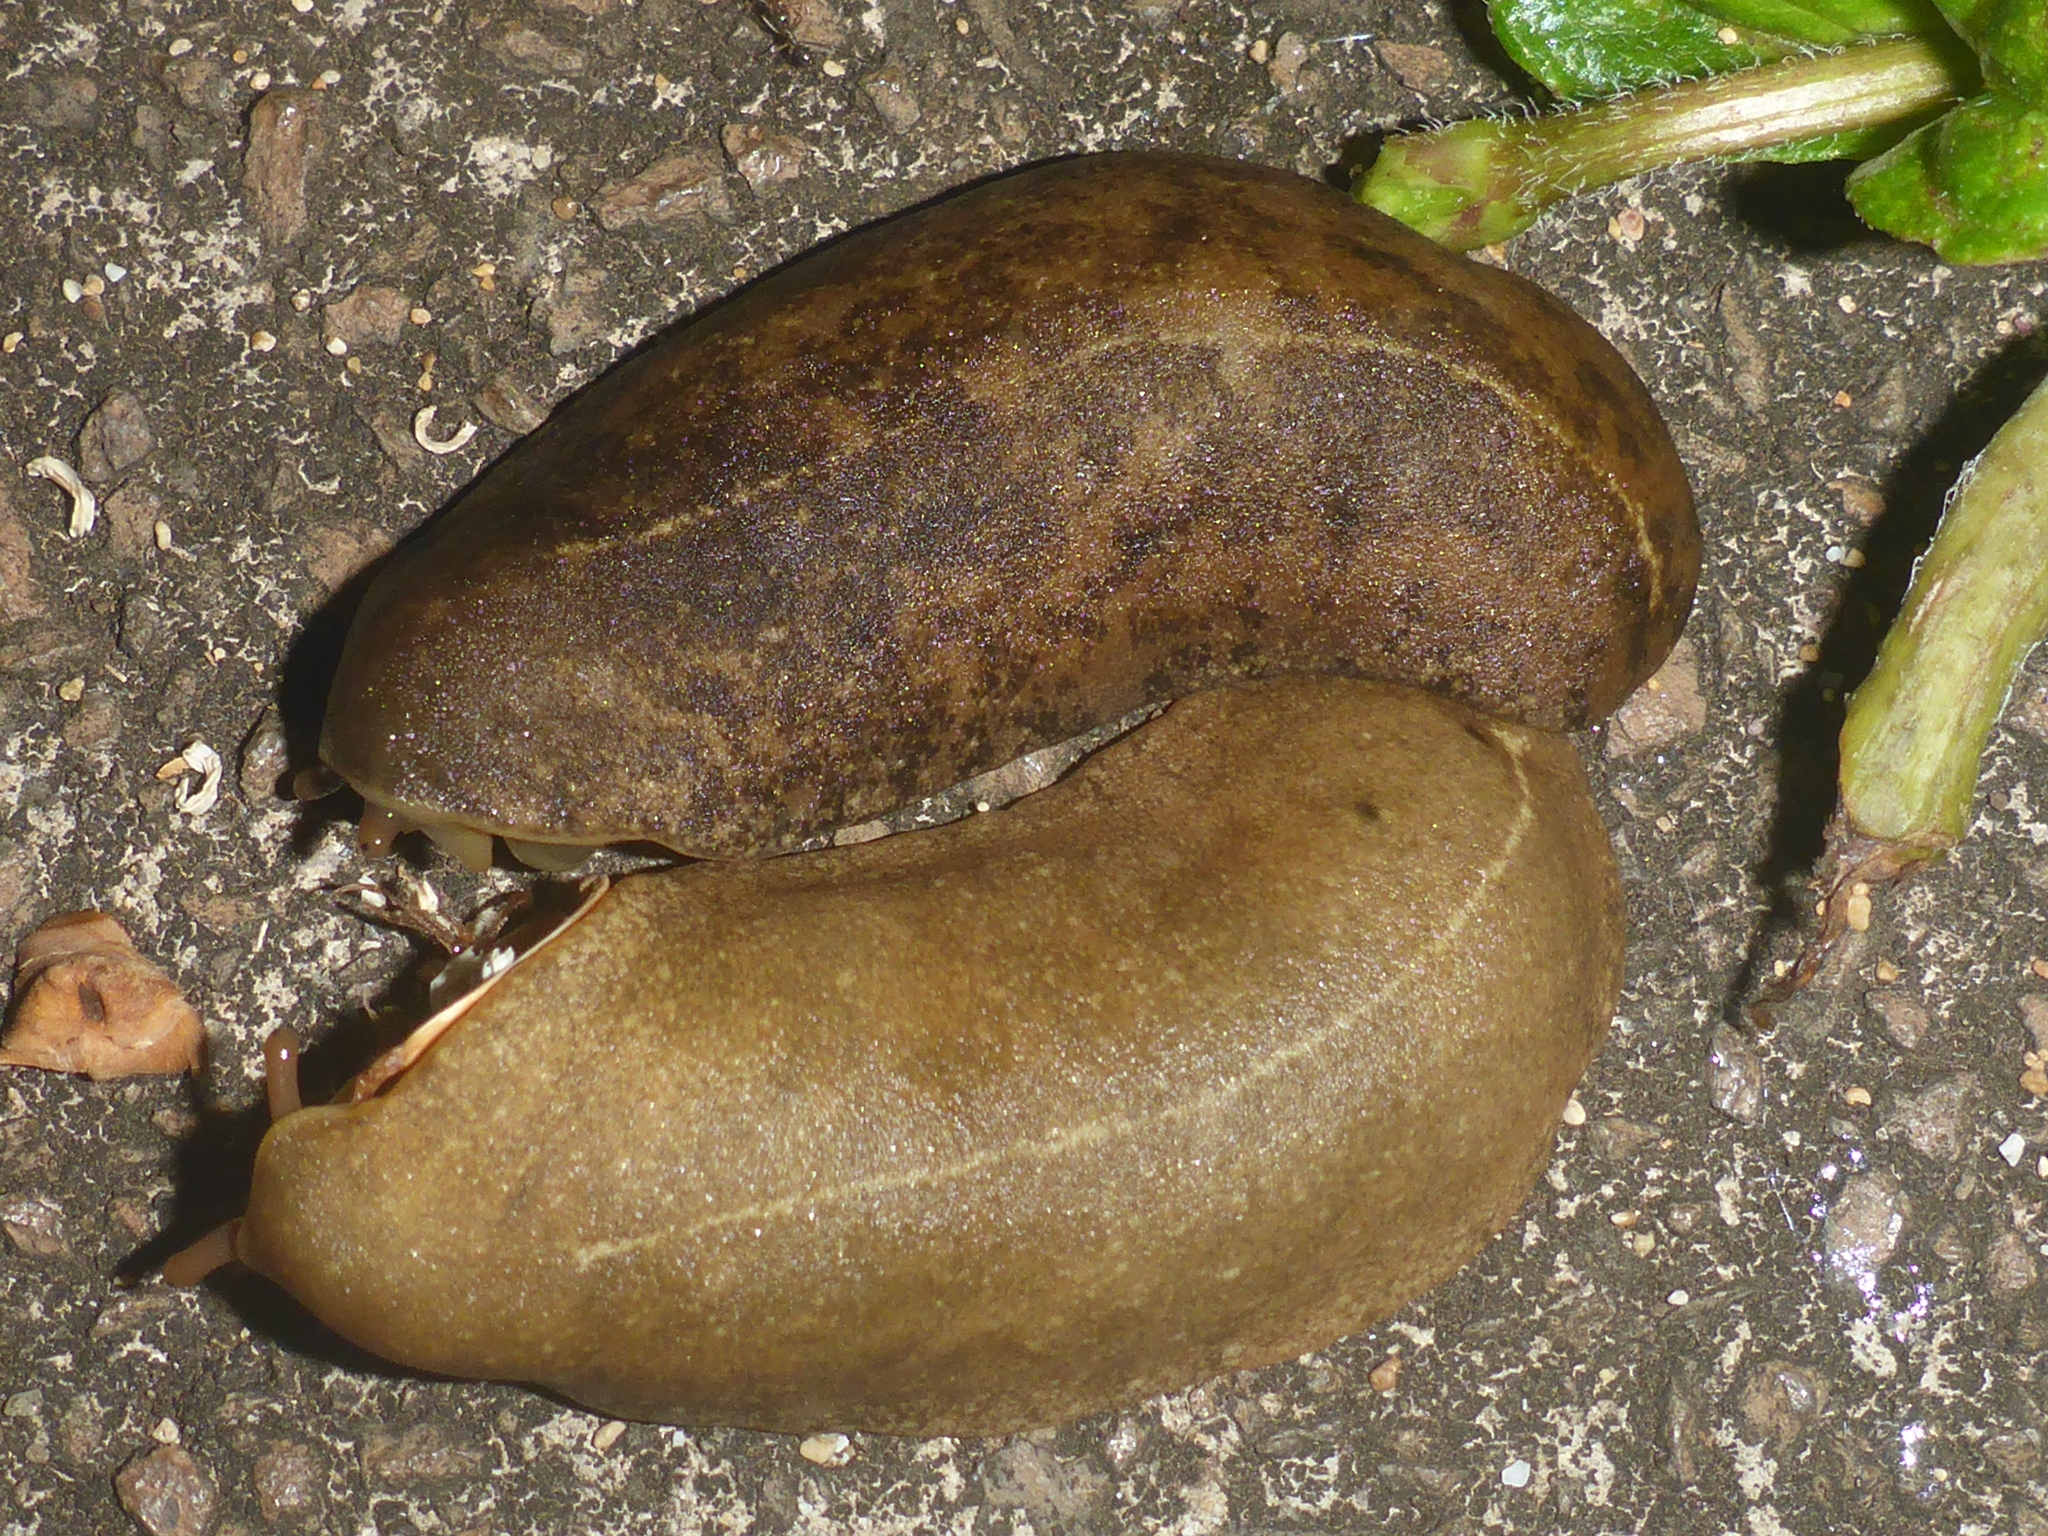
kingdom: Animalia
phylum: Mollusca
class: Gastropoda
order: Systellommatophora
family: Veronicellidae
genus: Veronicella
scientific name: Veronicella cubensis
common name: Two striped slug
